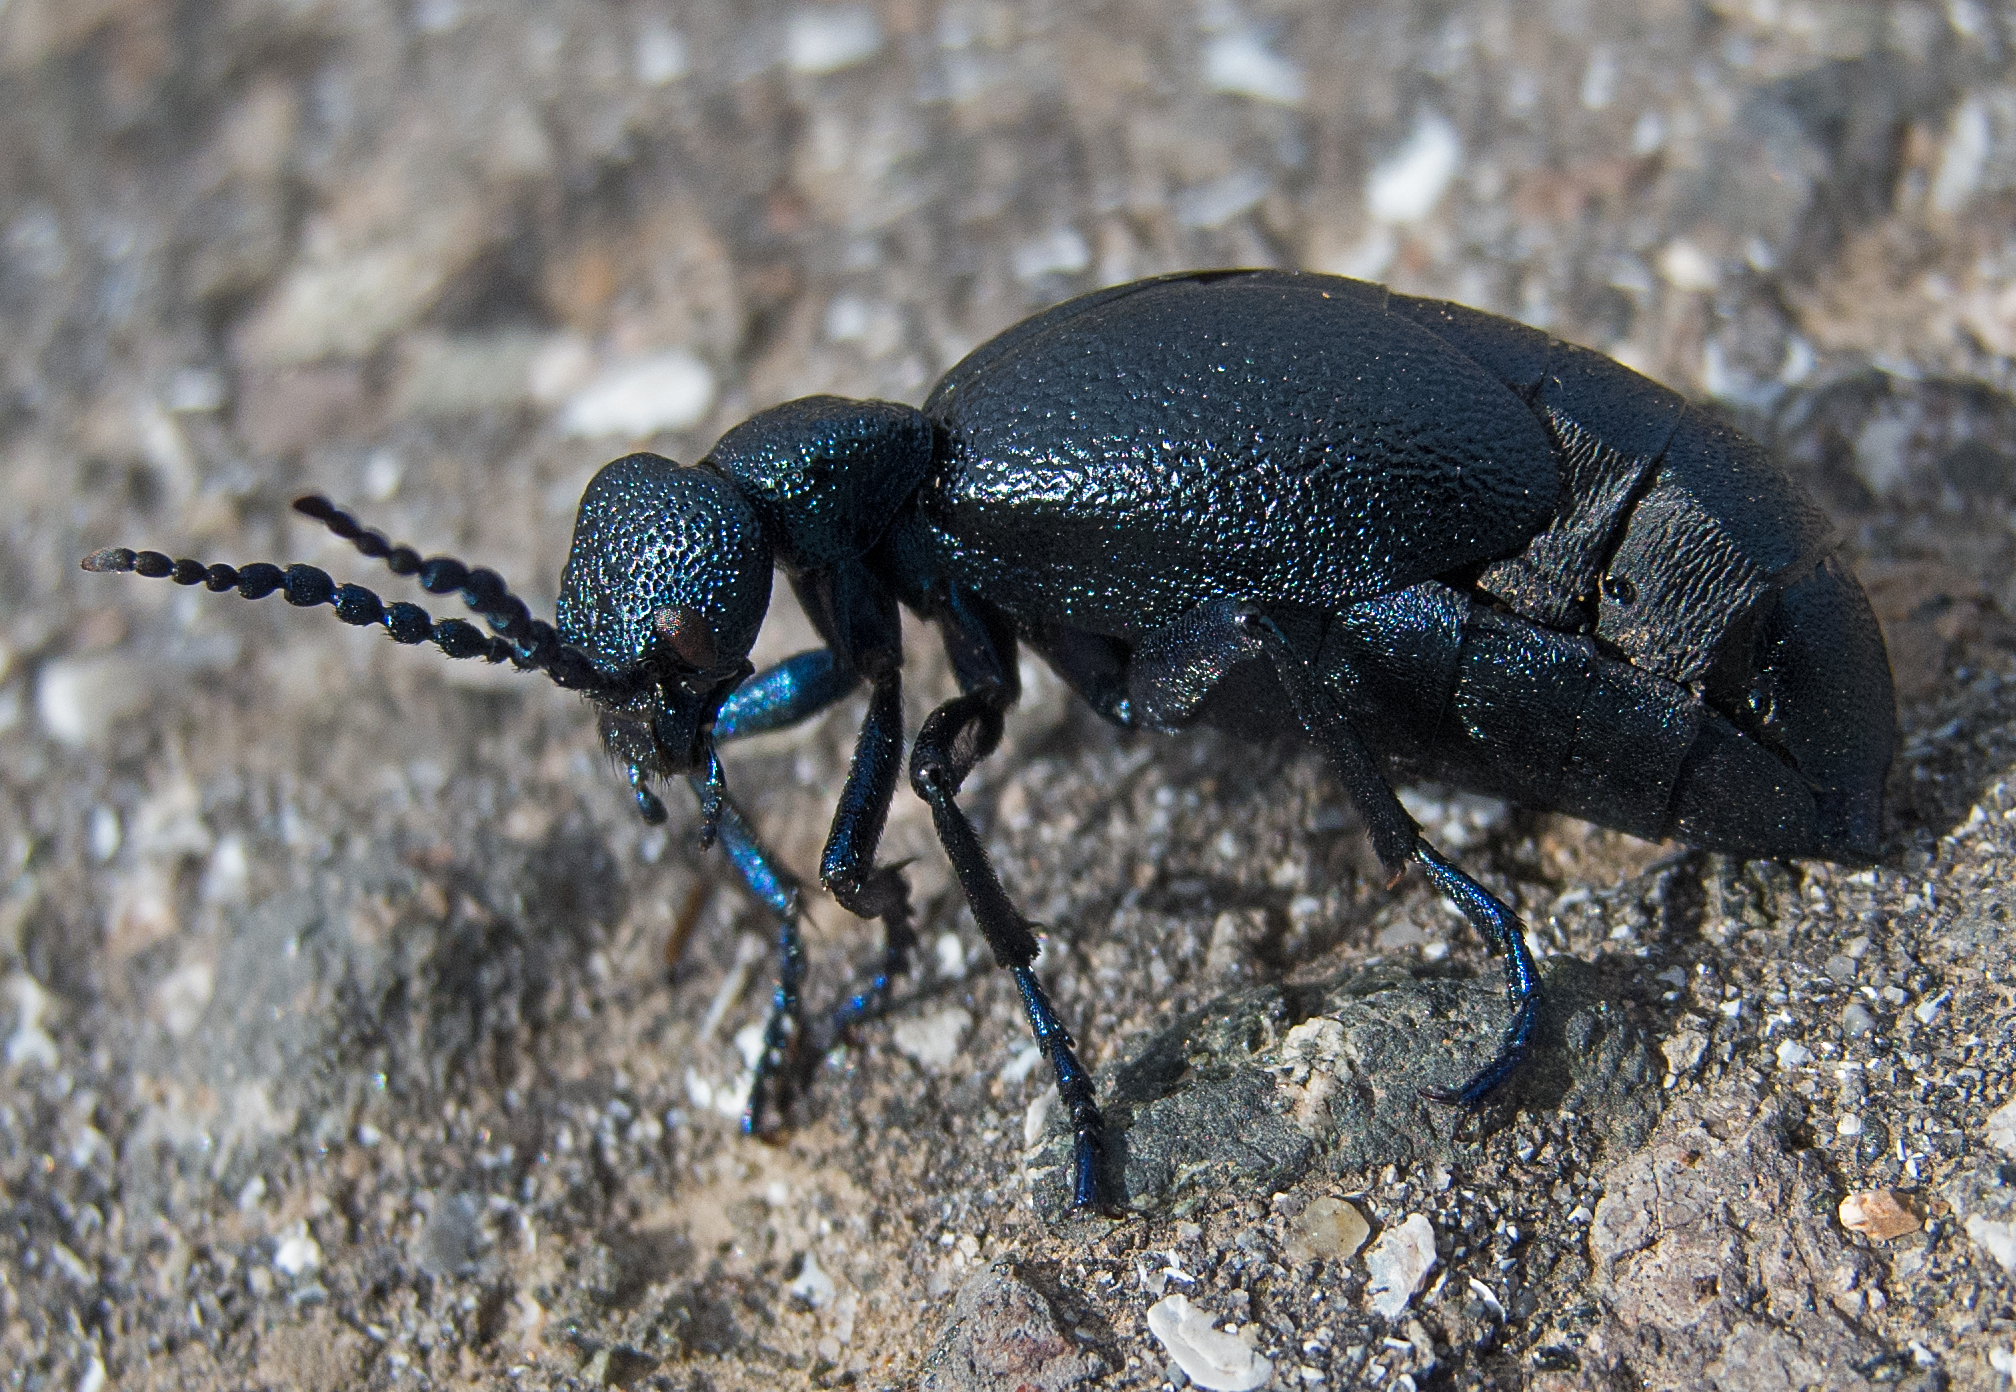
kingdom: Animalia
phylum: Arthropoda
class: Insecta
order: Coleoptera
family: Meloidae
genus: Meloe
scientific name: Meloe proscarabaeus
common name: Black oil-beetle
